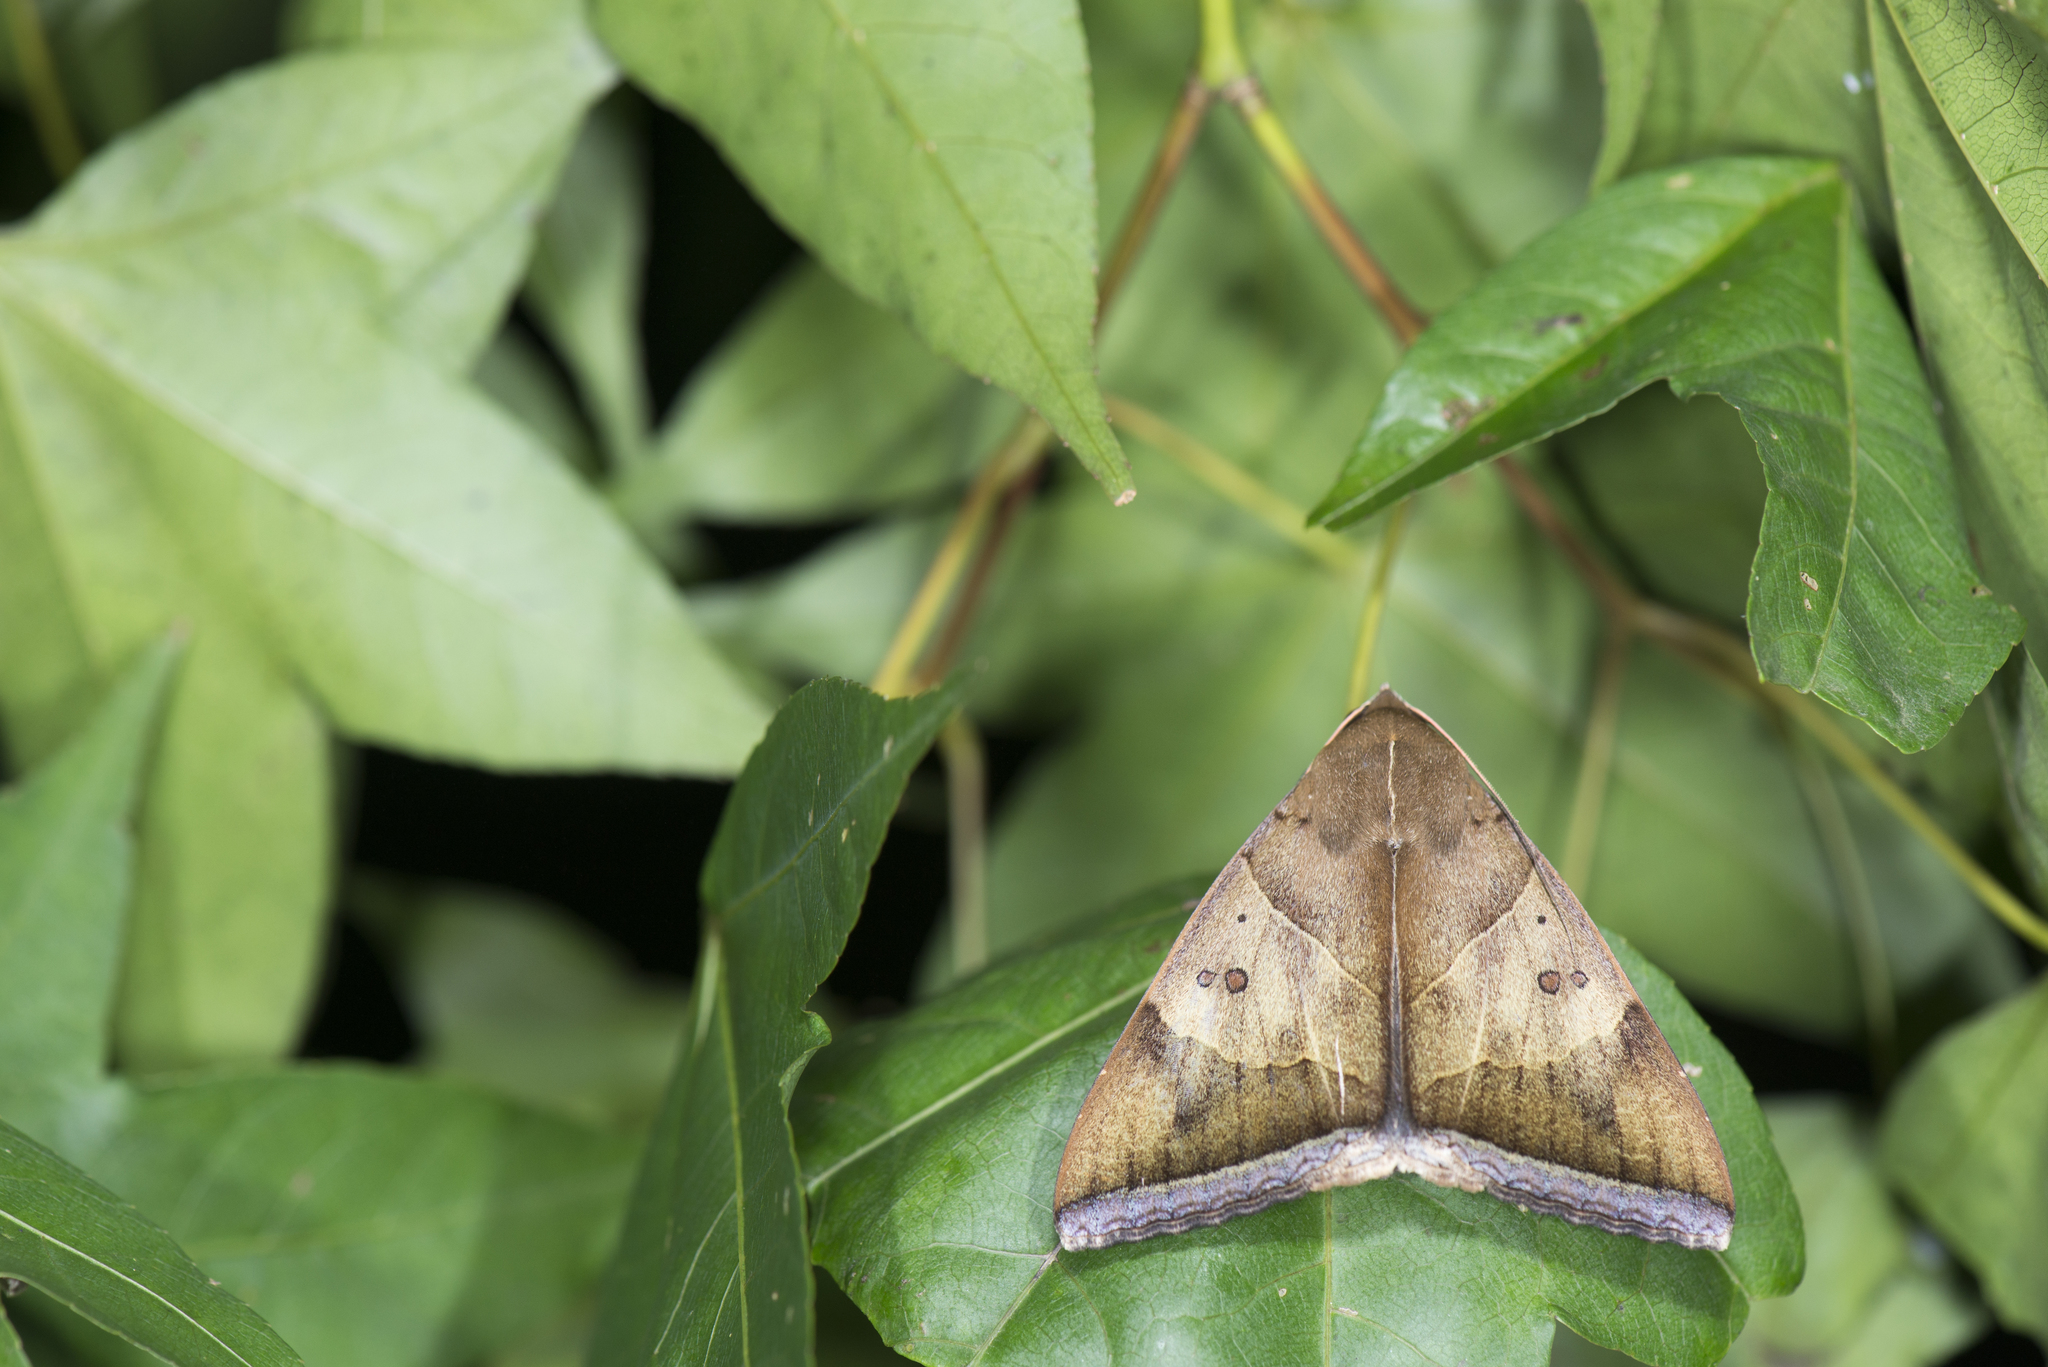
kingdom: Animalia
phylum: Arthropoda
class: Insecta
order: Lepidoptera
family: Erebidae
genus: Artena
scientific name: Artena dotata
